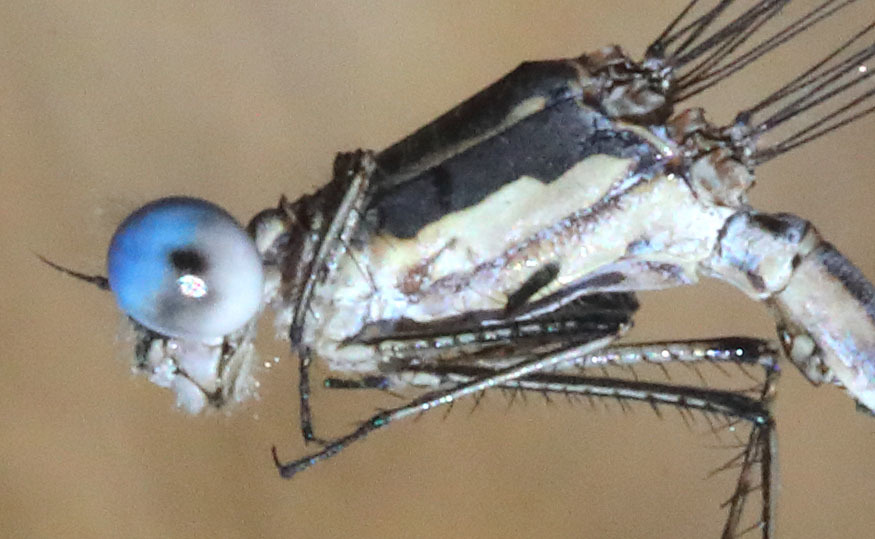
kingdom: Animalia
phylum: Arthropoda
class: Insecta
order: Odonata
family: Lestidae
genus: Lestes
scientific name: Lestes congener
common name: Spotted spreadwing
